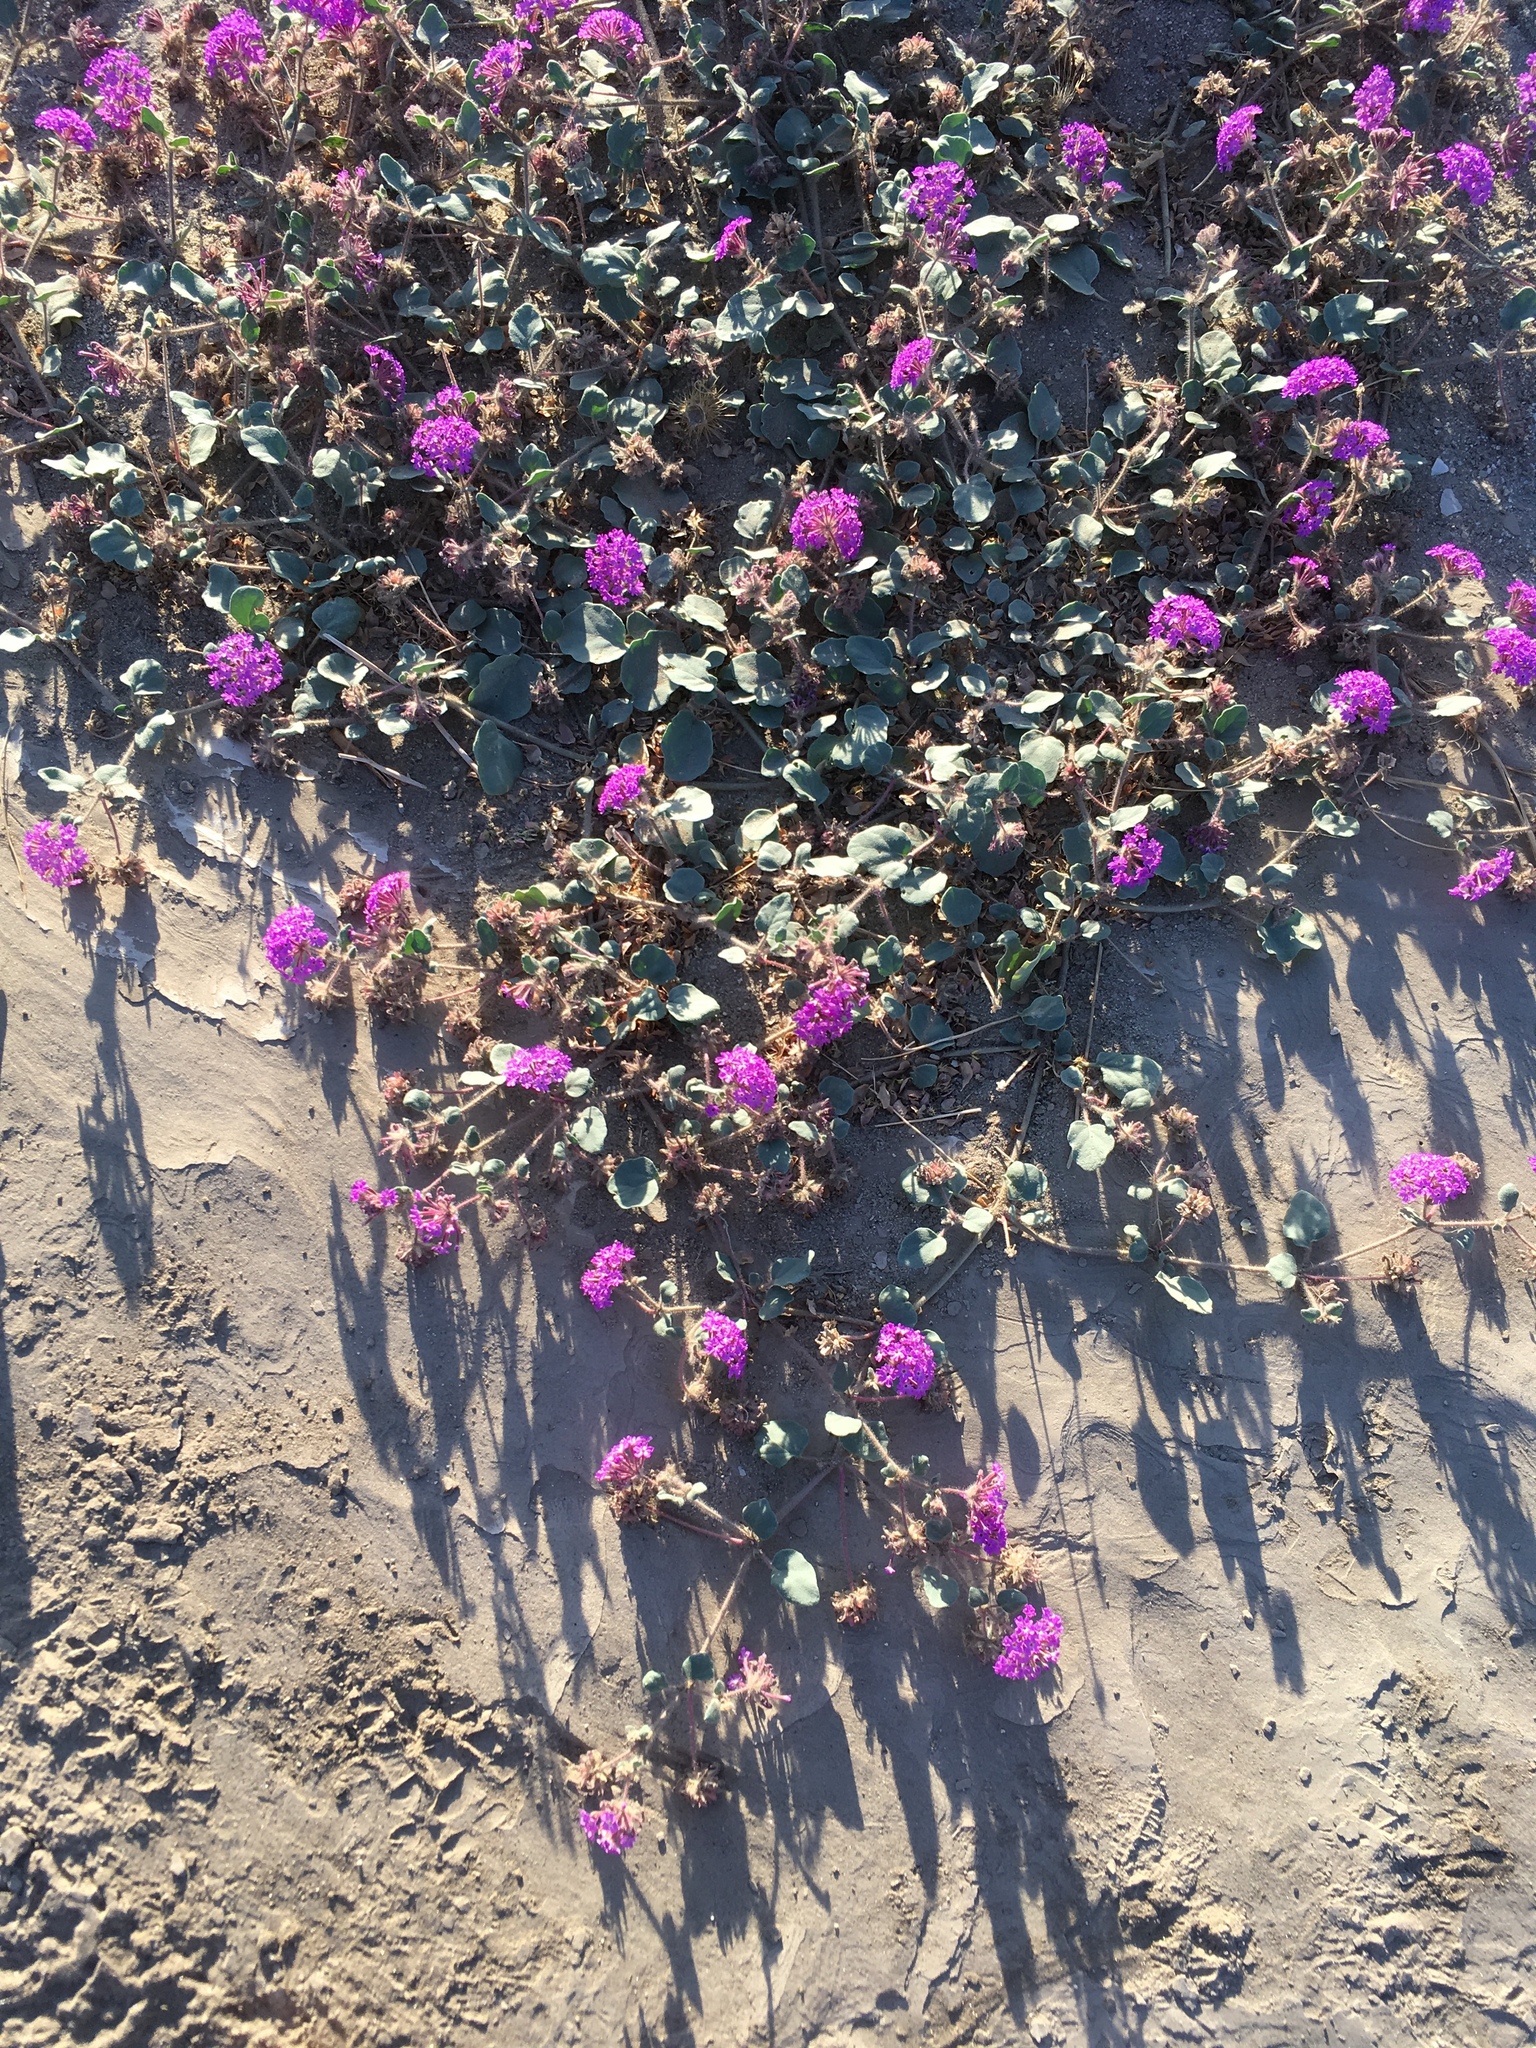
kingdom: Plantae
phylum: Tracheophyta
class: Magnoliopsida
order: Caryophyllales
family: Nyctaginaceae
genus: Abronia
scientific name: Abronia villosa
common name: Desert sand-verbena
